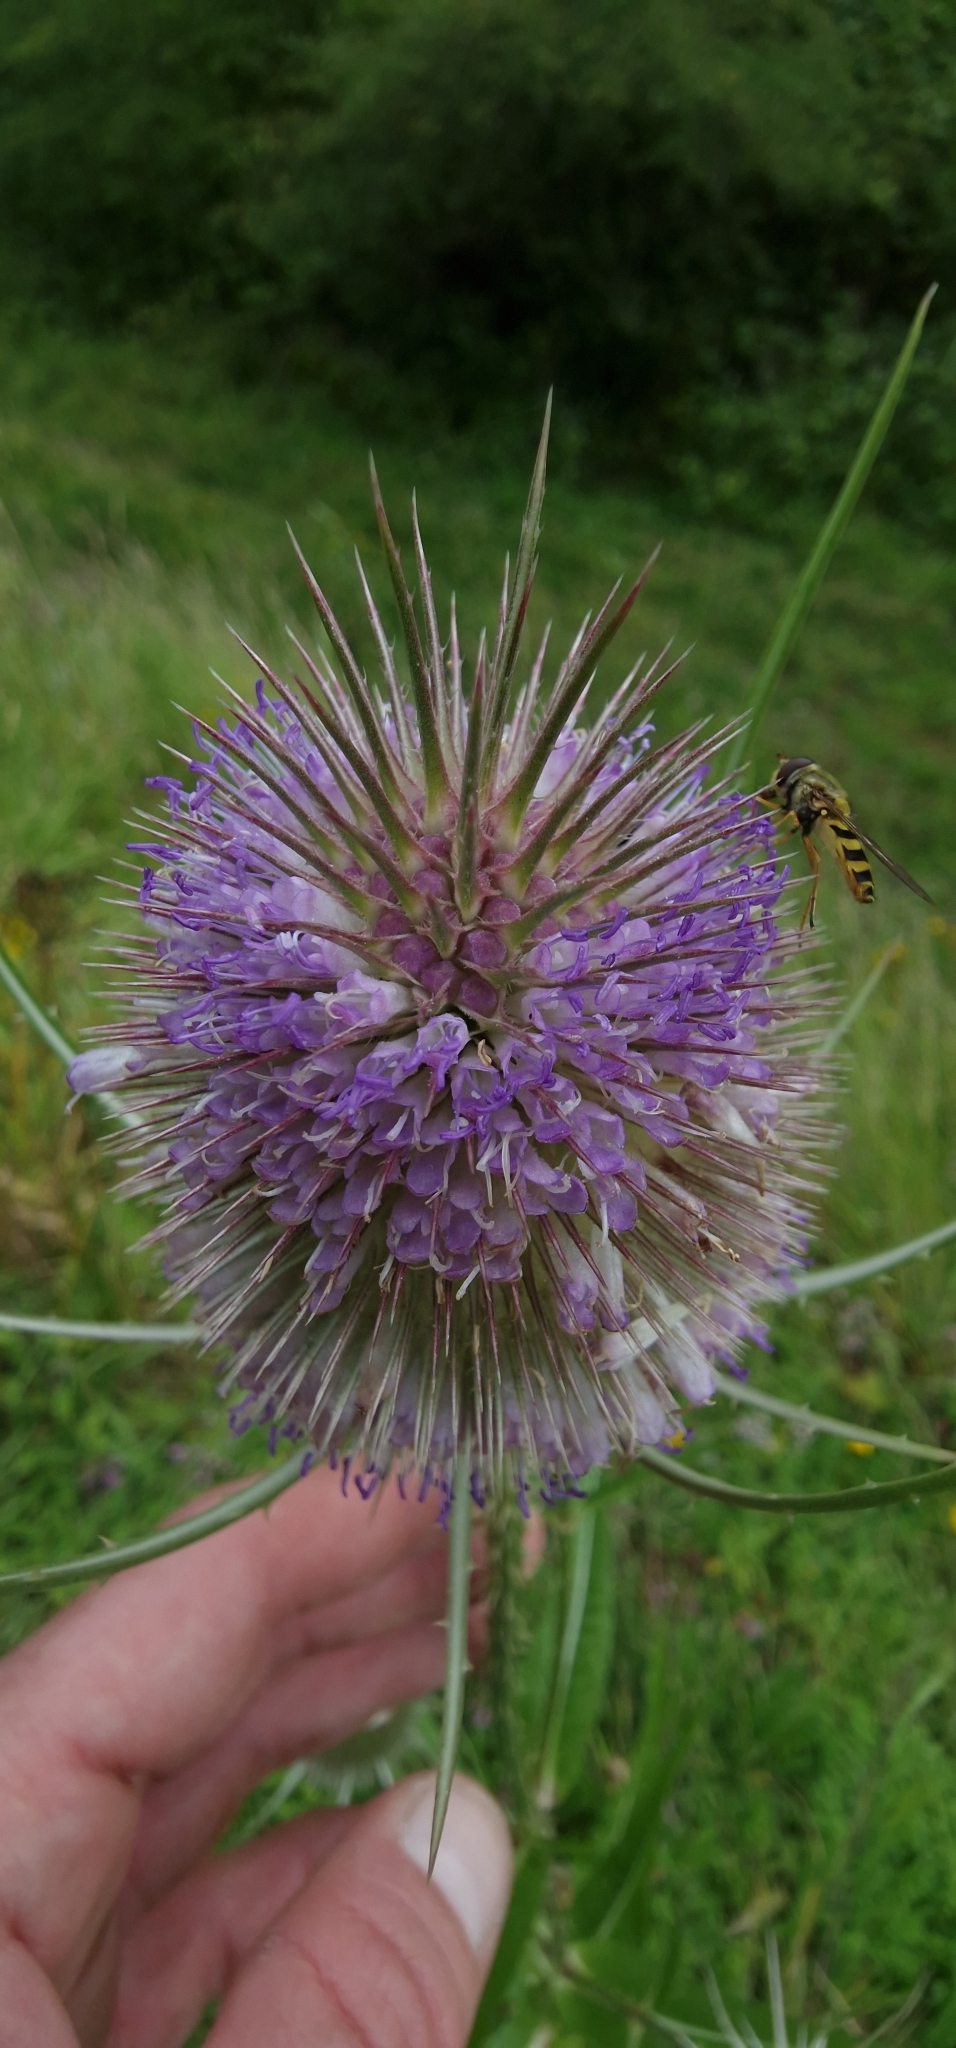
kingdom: Plantae
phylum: Tracheophyta
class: Magnoliopsida
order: Dipsacales
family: Caprifoliaceae
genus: Dipsacus
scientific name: Dipsacus fullonum
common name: Teasel
